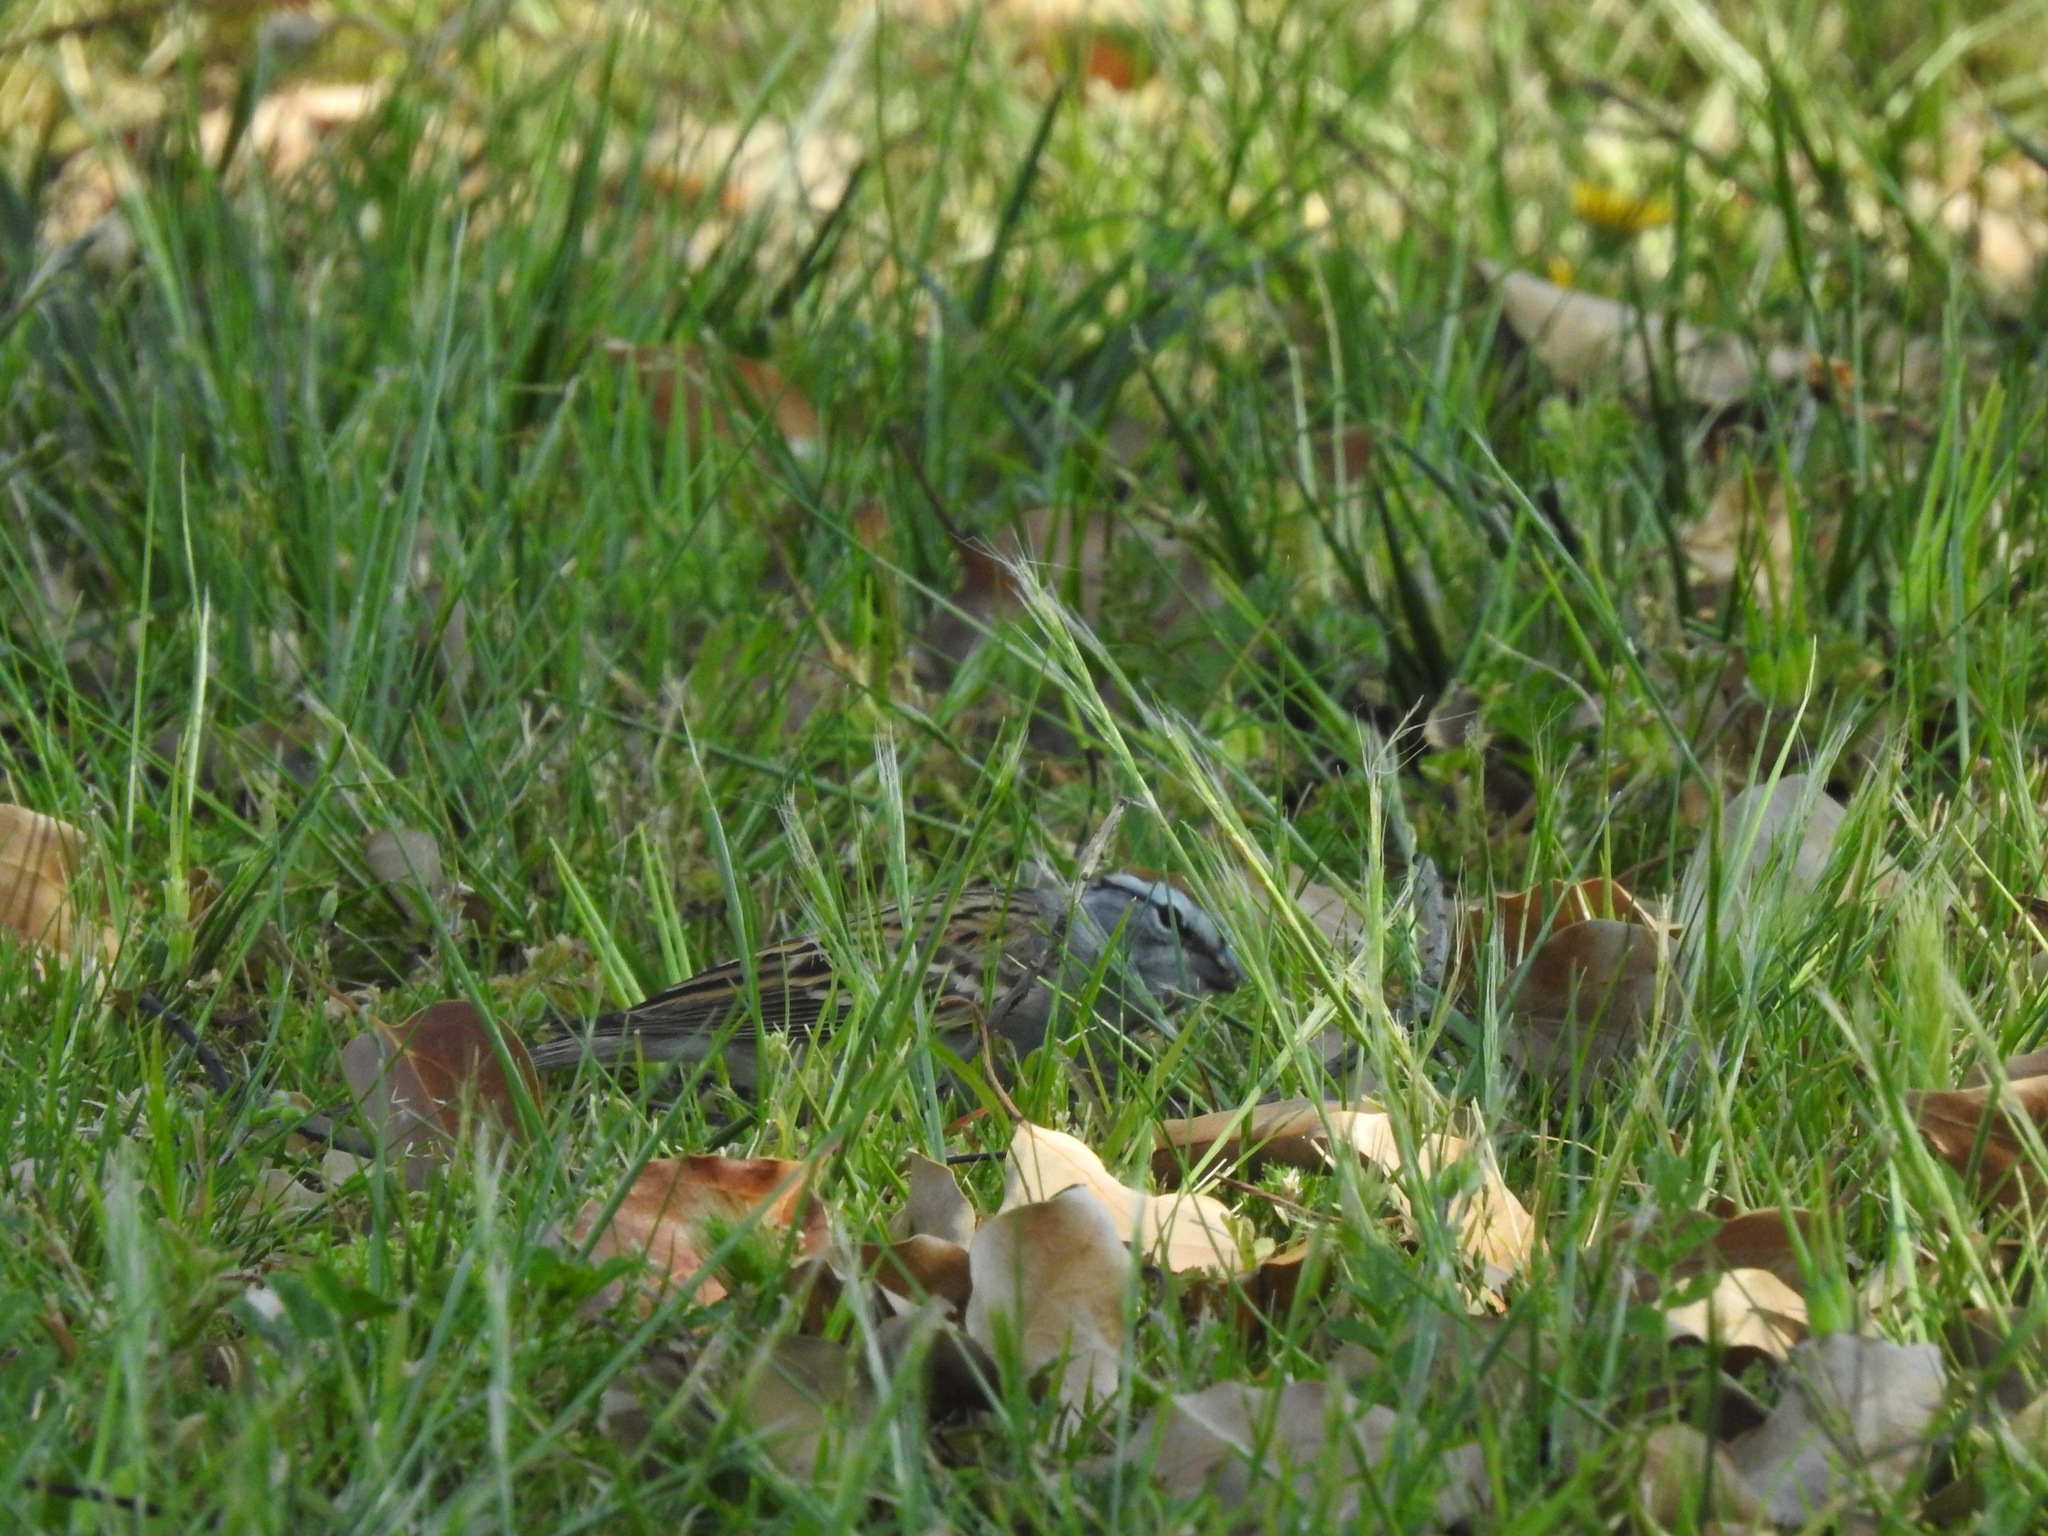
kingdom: Animalia
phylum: Chordata
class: Aves
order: Passeriformes
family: Passerellidae
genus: Spizella
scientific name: Spizella passerina
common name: Chipping sparrow
